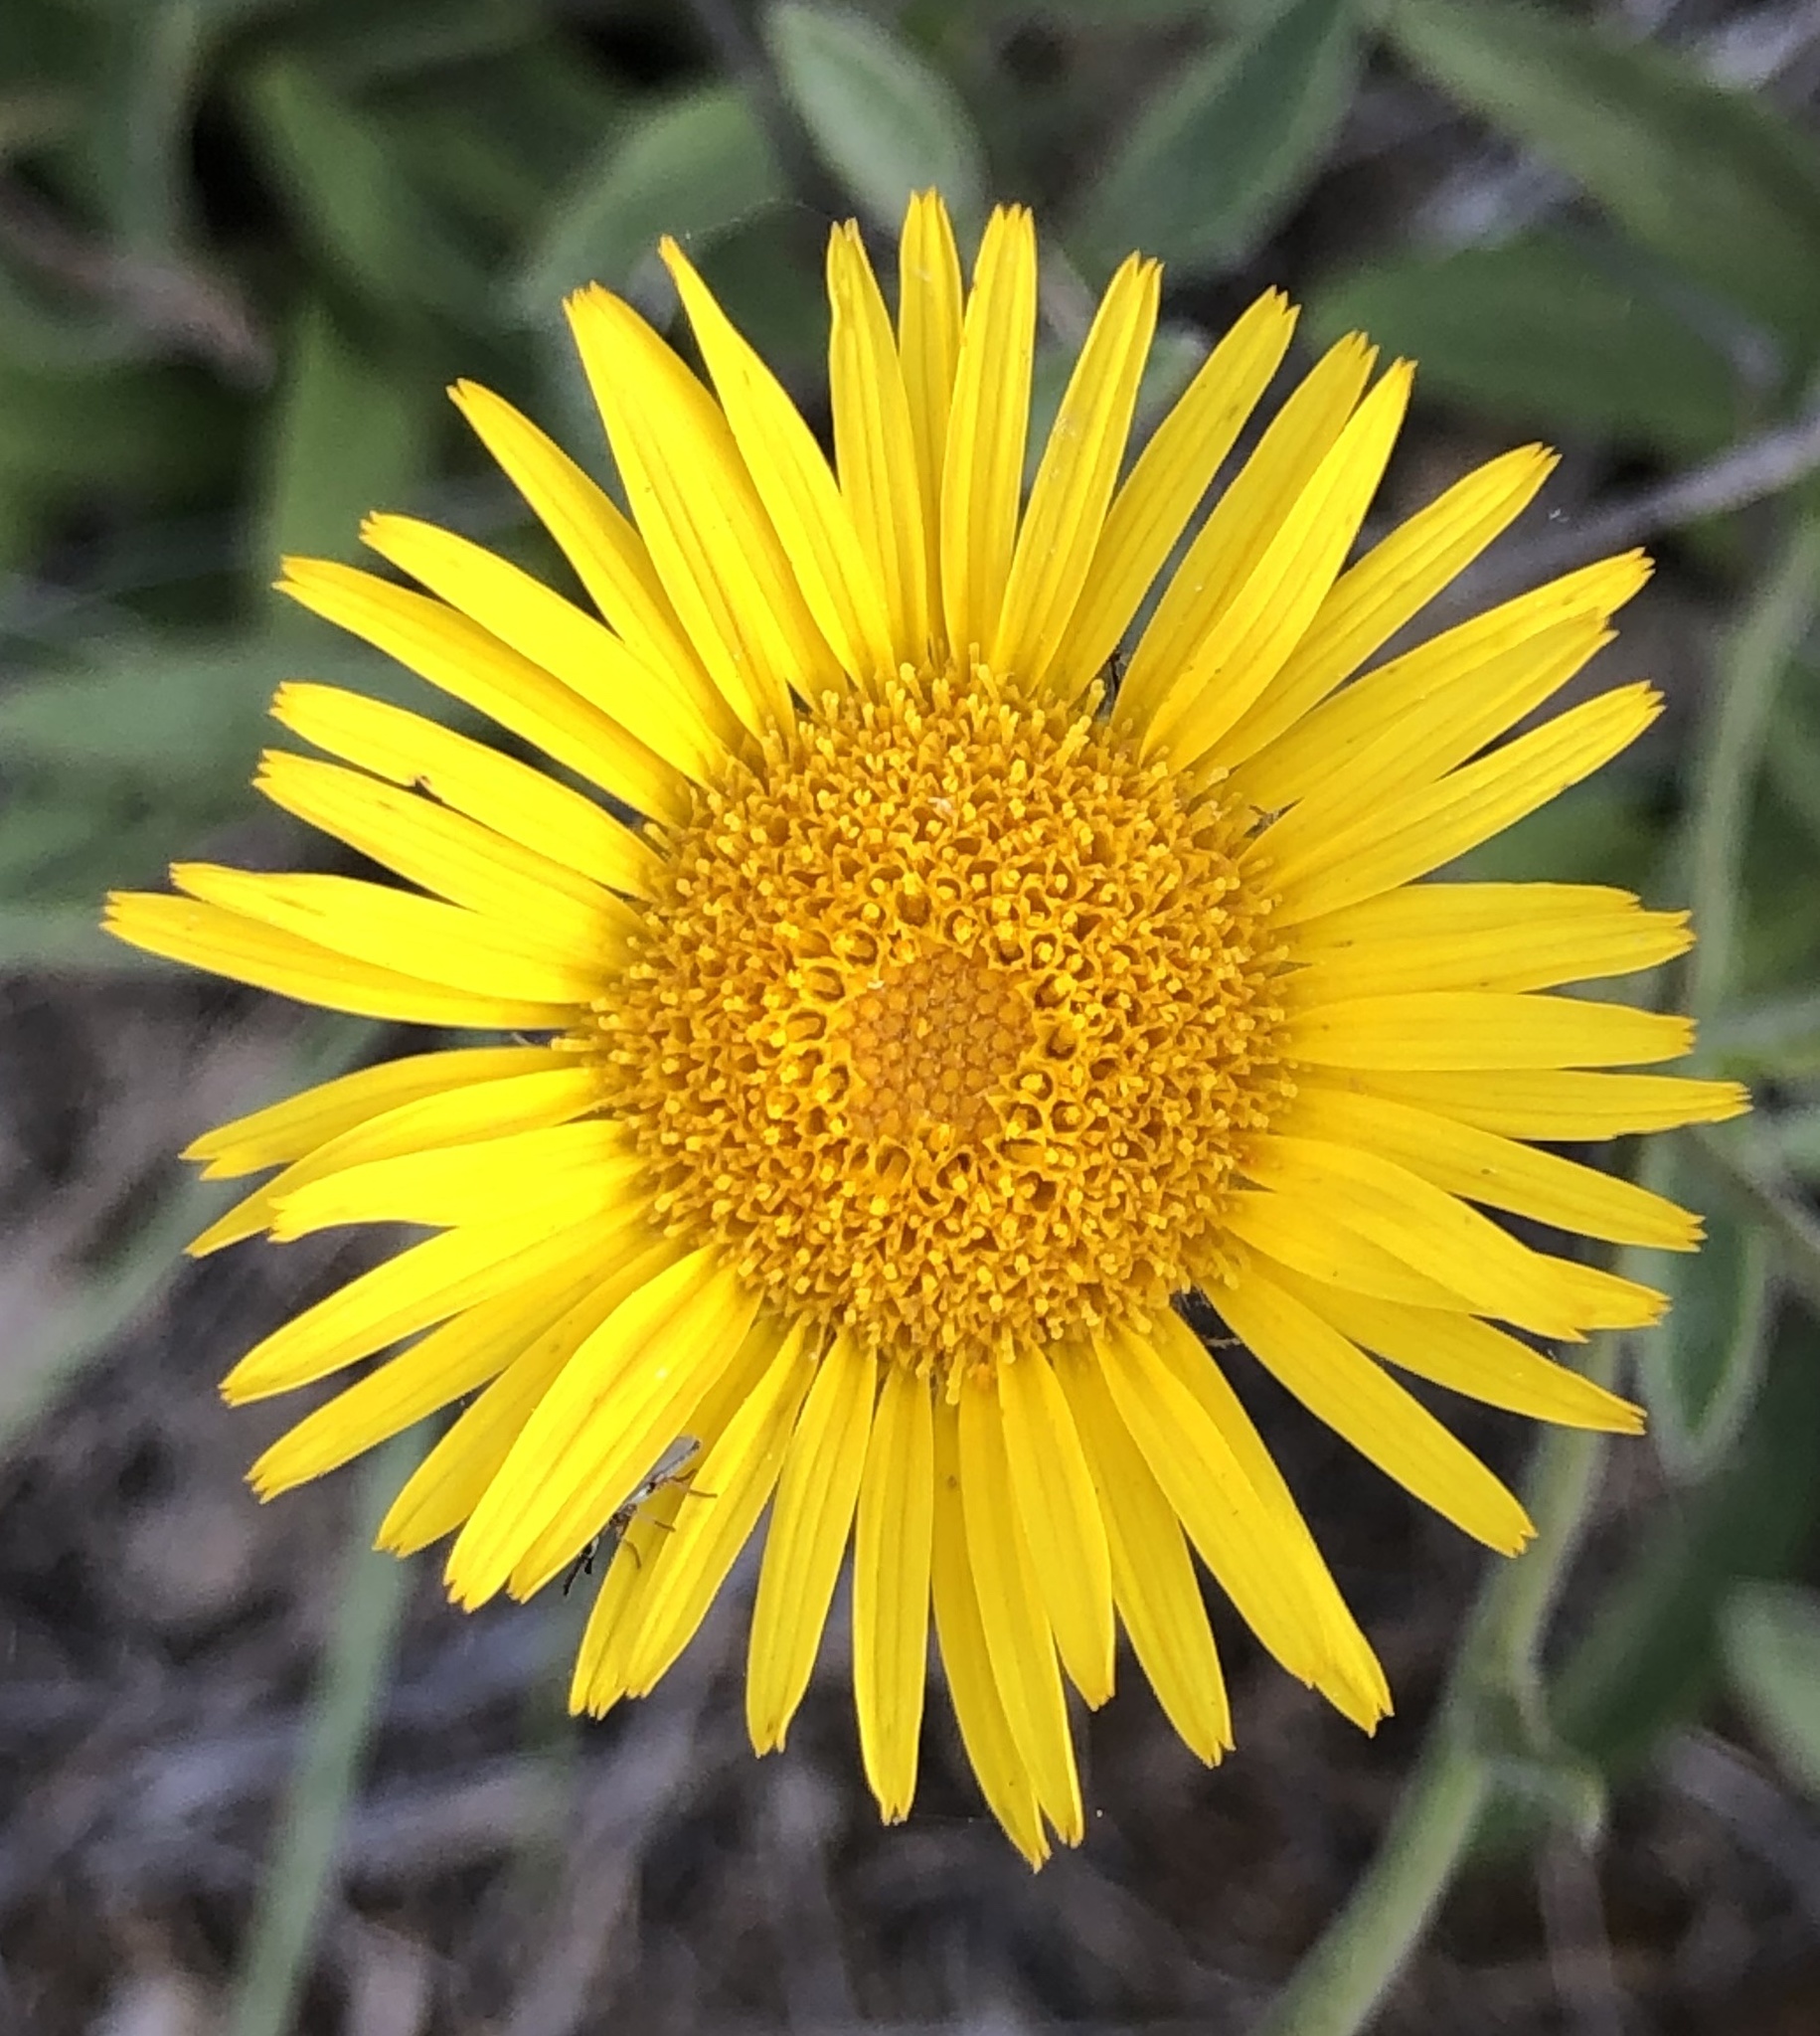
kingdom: Plantae
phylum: Tracheophyta
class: Magnoliopsida
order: Asterales
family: Asteraceae
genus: Pentanema
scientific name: Pentanema montanum
